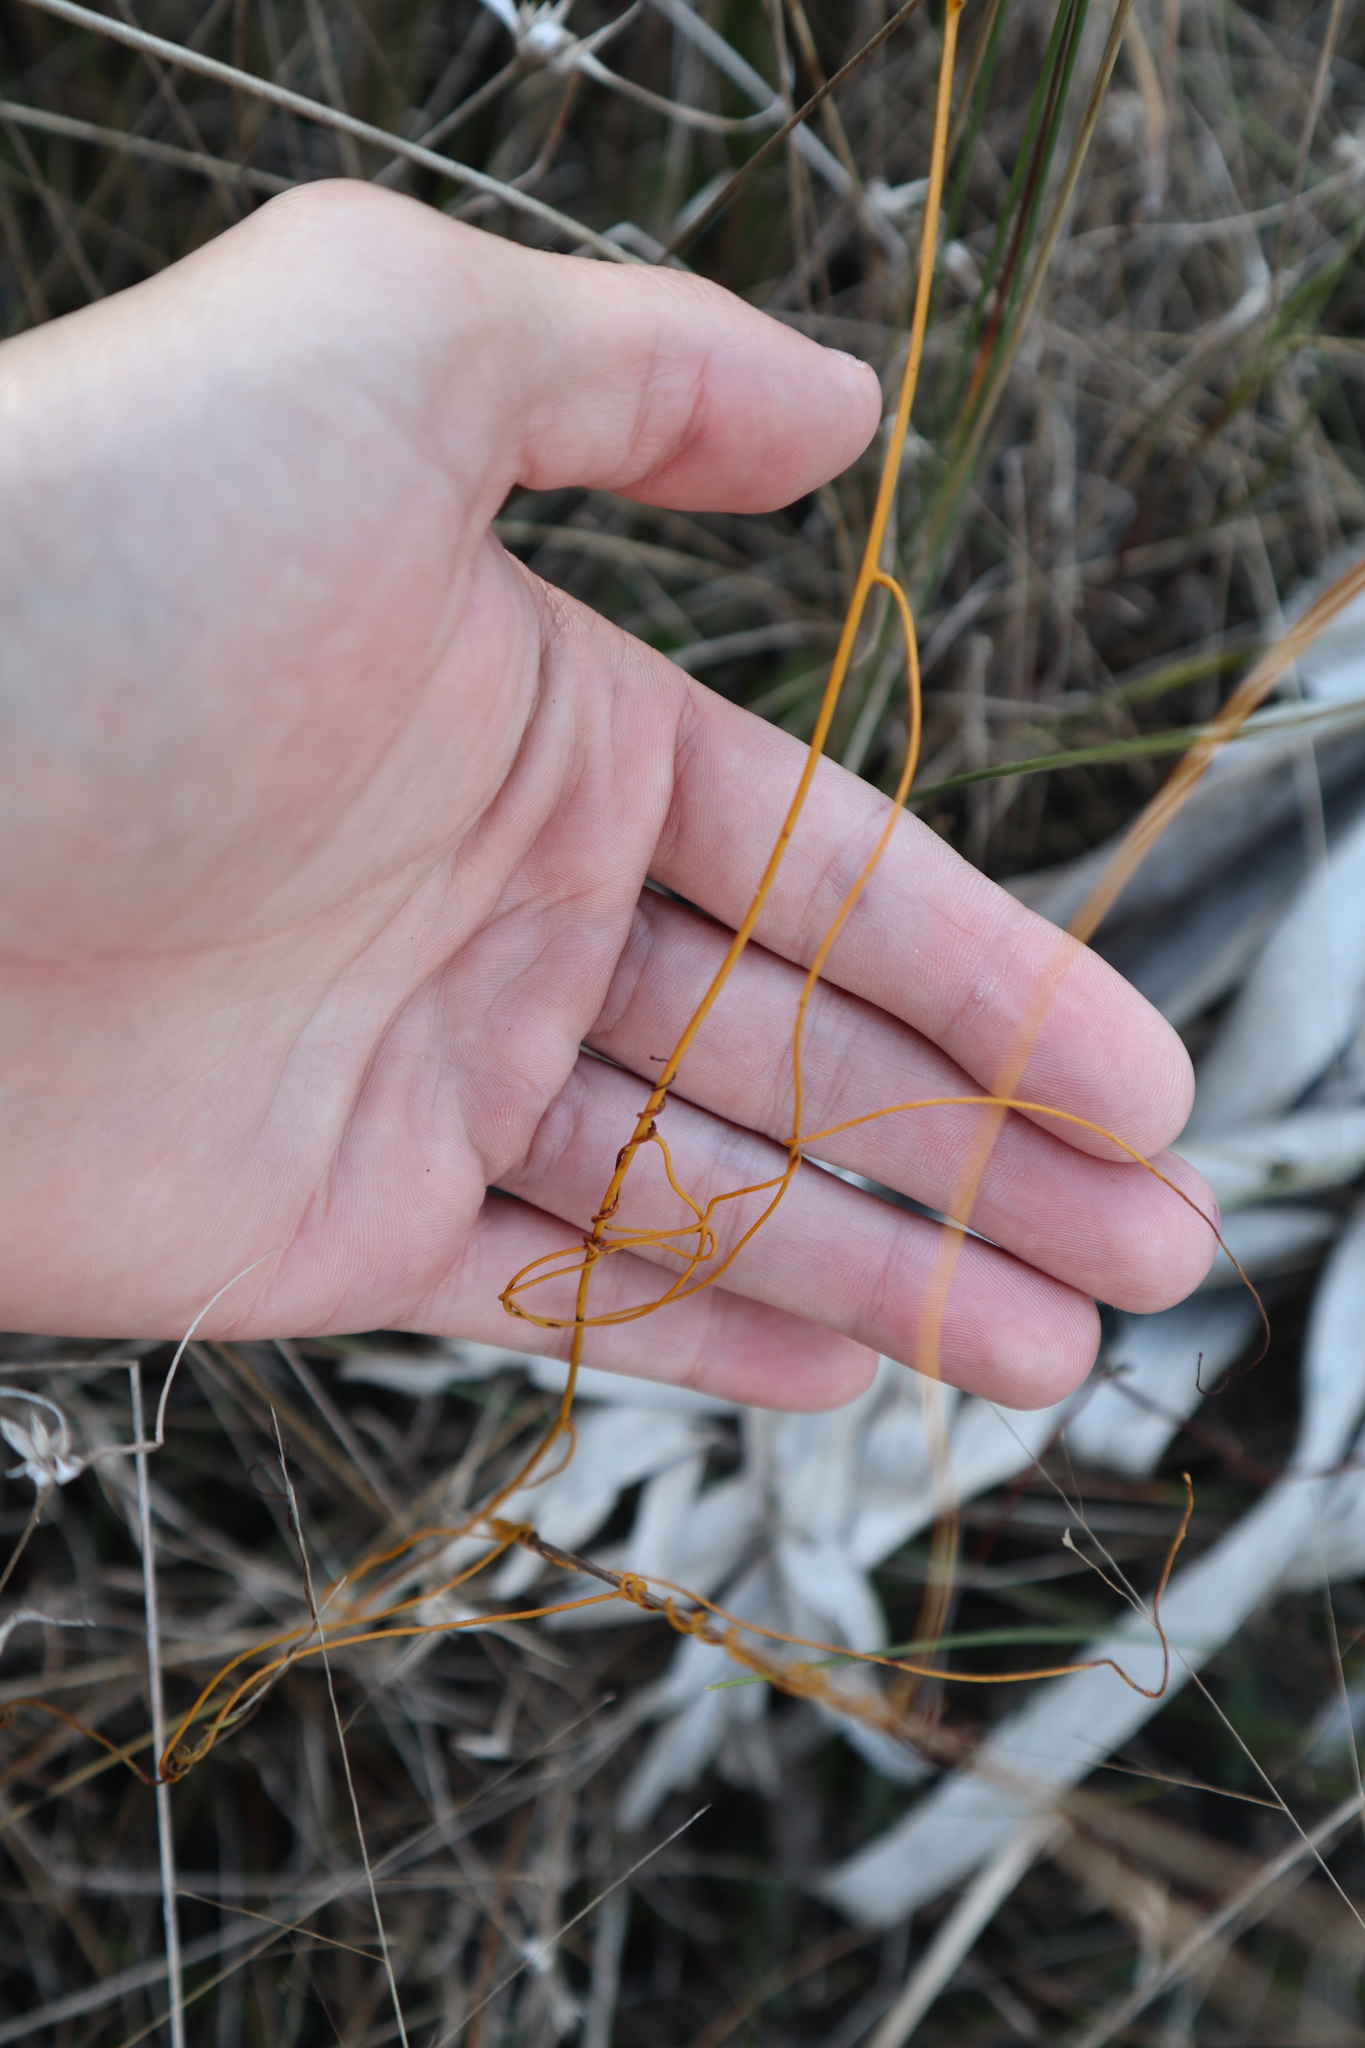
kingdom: Plantae
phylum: Tracheophyta
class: Magnoliopsida
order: Laurales
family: Lauraceae
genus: Cassytha
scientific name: Cassytha filiformis
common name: Dodder-laurel
